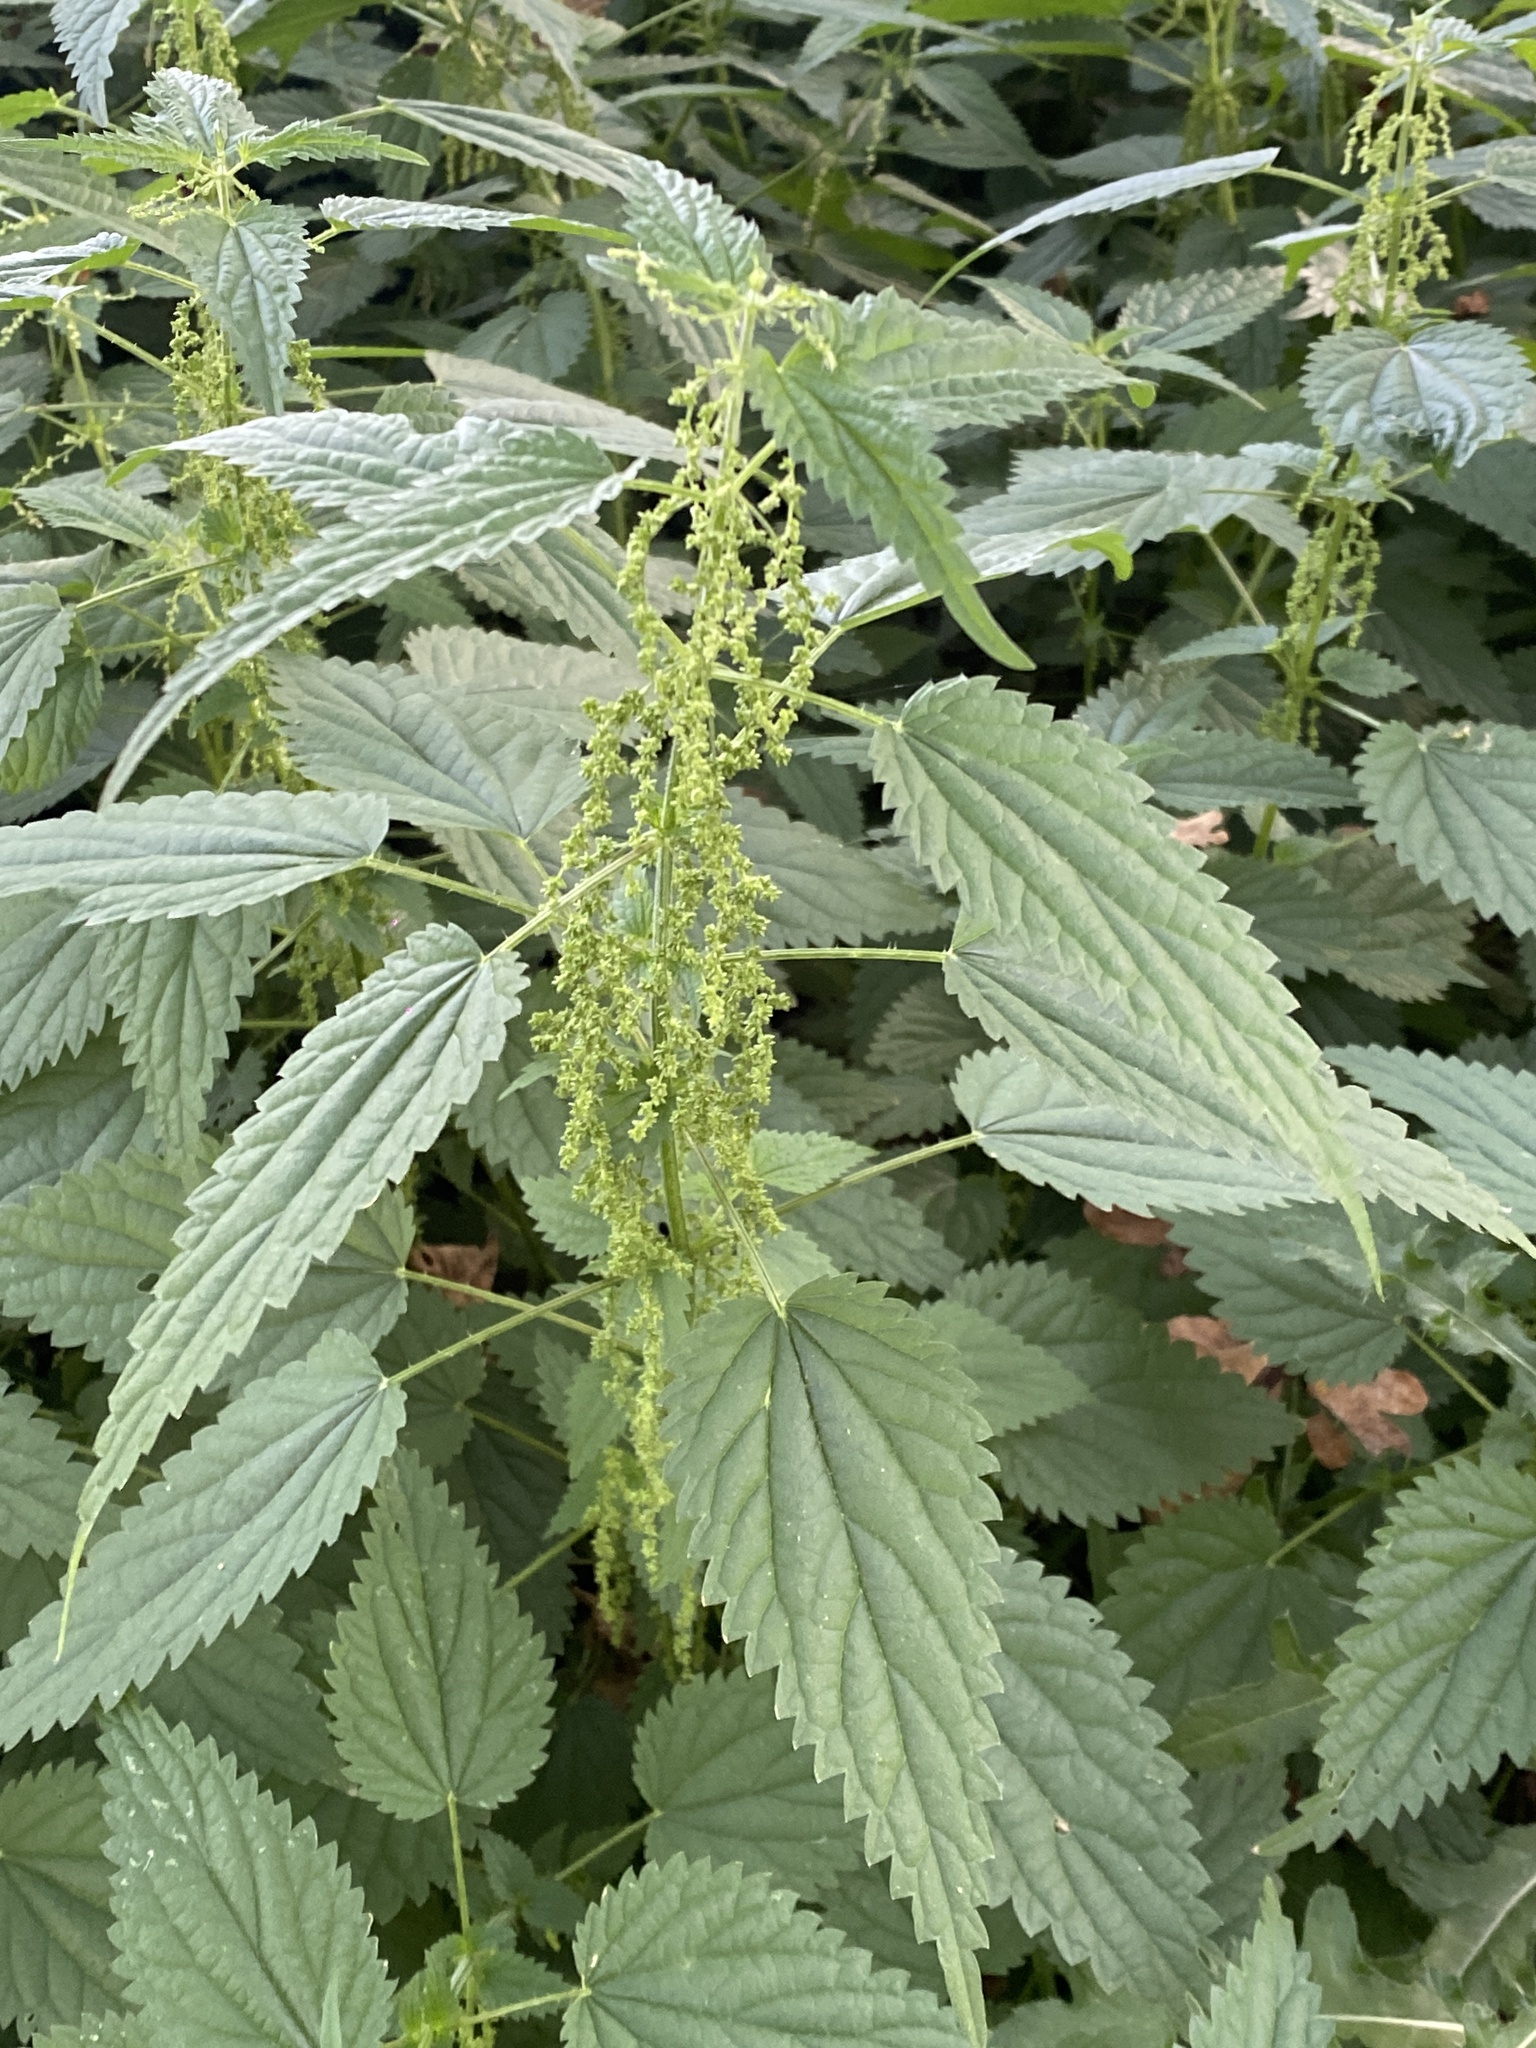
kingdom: Plantae
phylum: Tracheophyta
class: Magnoliopsida
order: Rosales
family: Urticaceae
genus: Urtica
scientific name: Urtica dioica
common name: Common nettle
